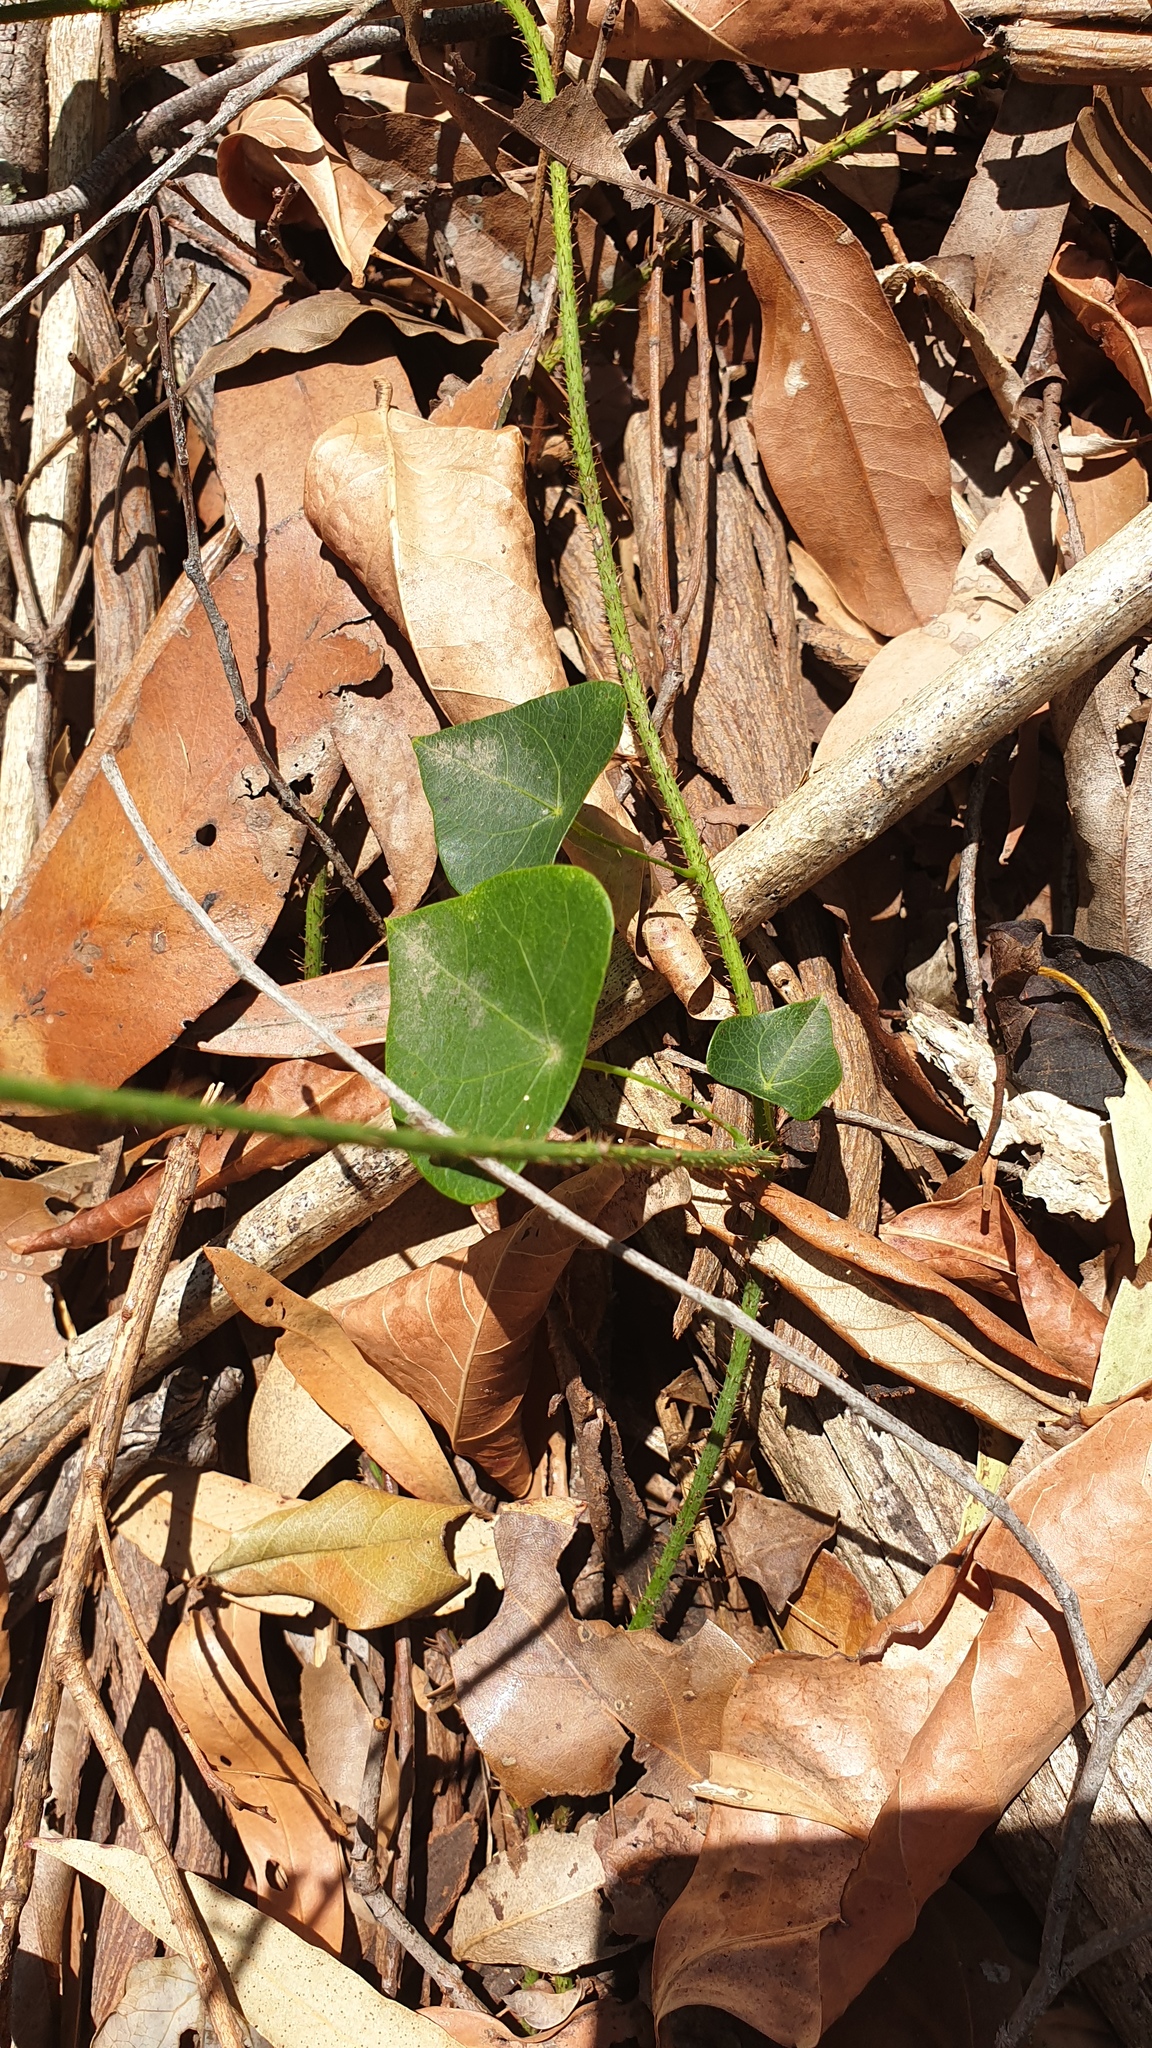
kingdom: Plantae
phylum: Tracheophyta
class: Magnoliopsida
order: Ranunculales
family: Menispermaceae
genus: Stephania
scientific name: Stephania aculeata
